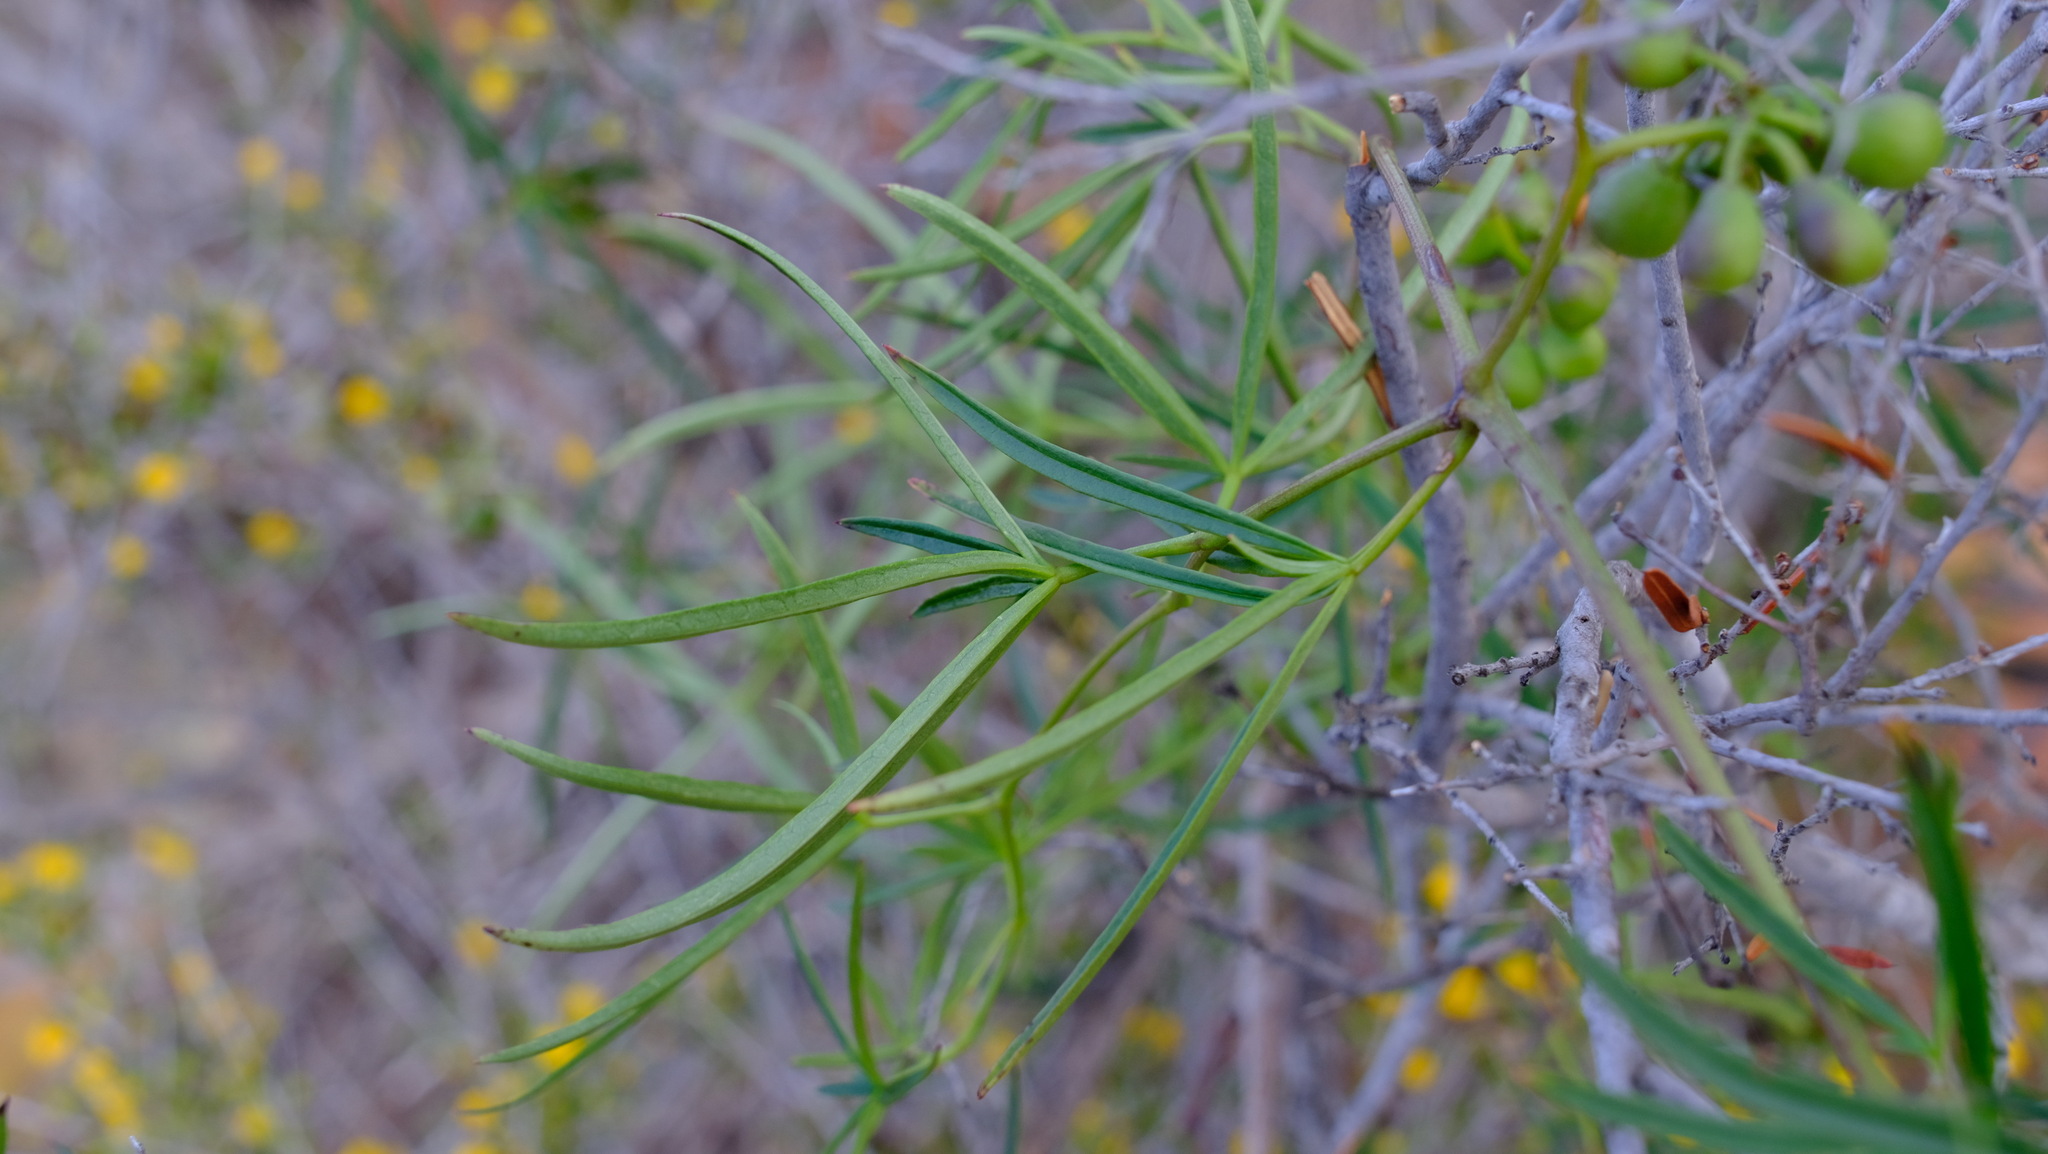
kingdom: Plantae
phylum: Tracheophyta
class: Magnoliopsida
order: Vitales
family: Vitaceae
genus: Clematicissus
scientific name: Clematicissus angustissima
